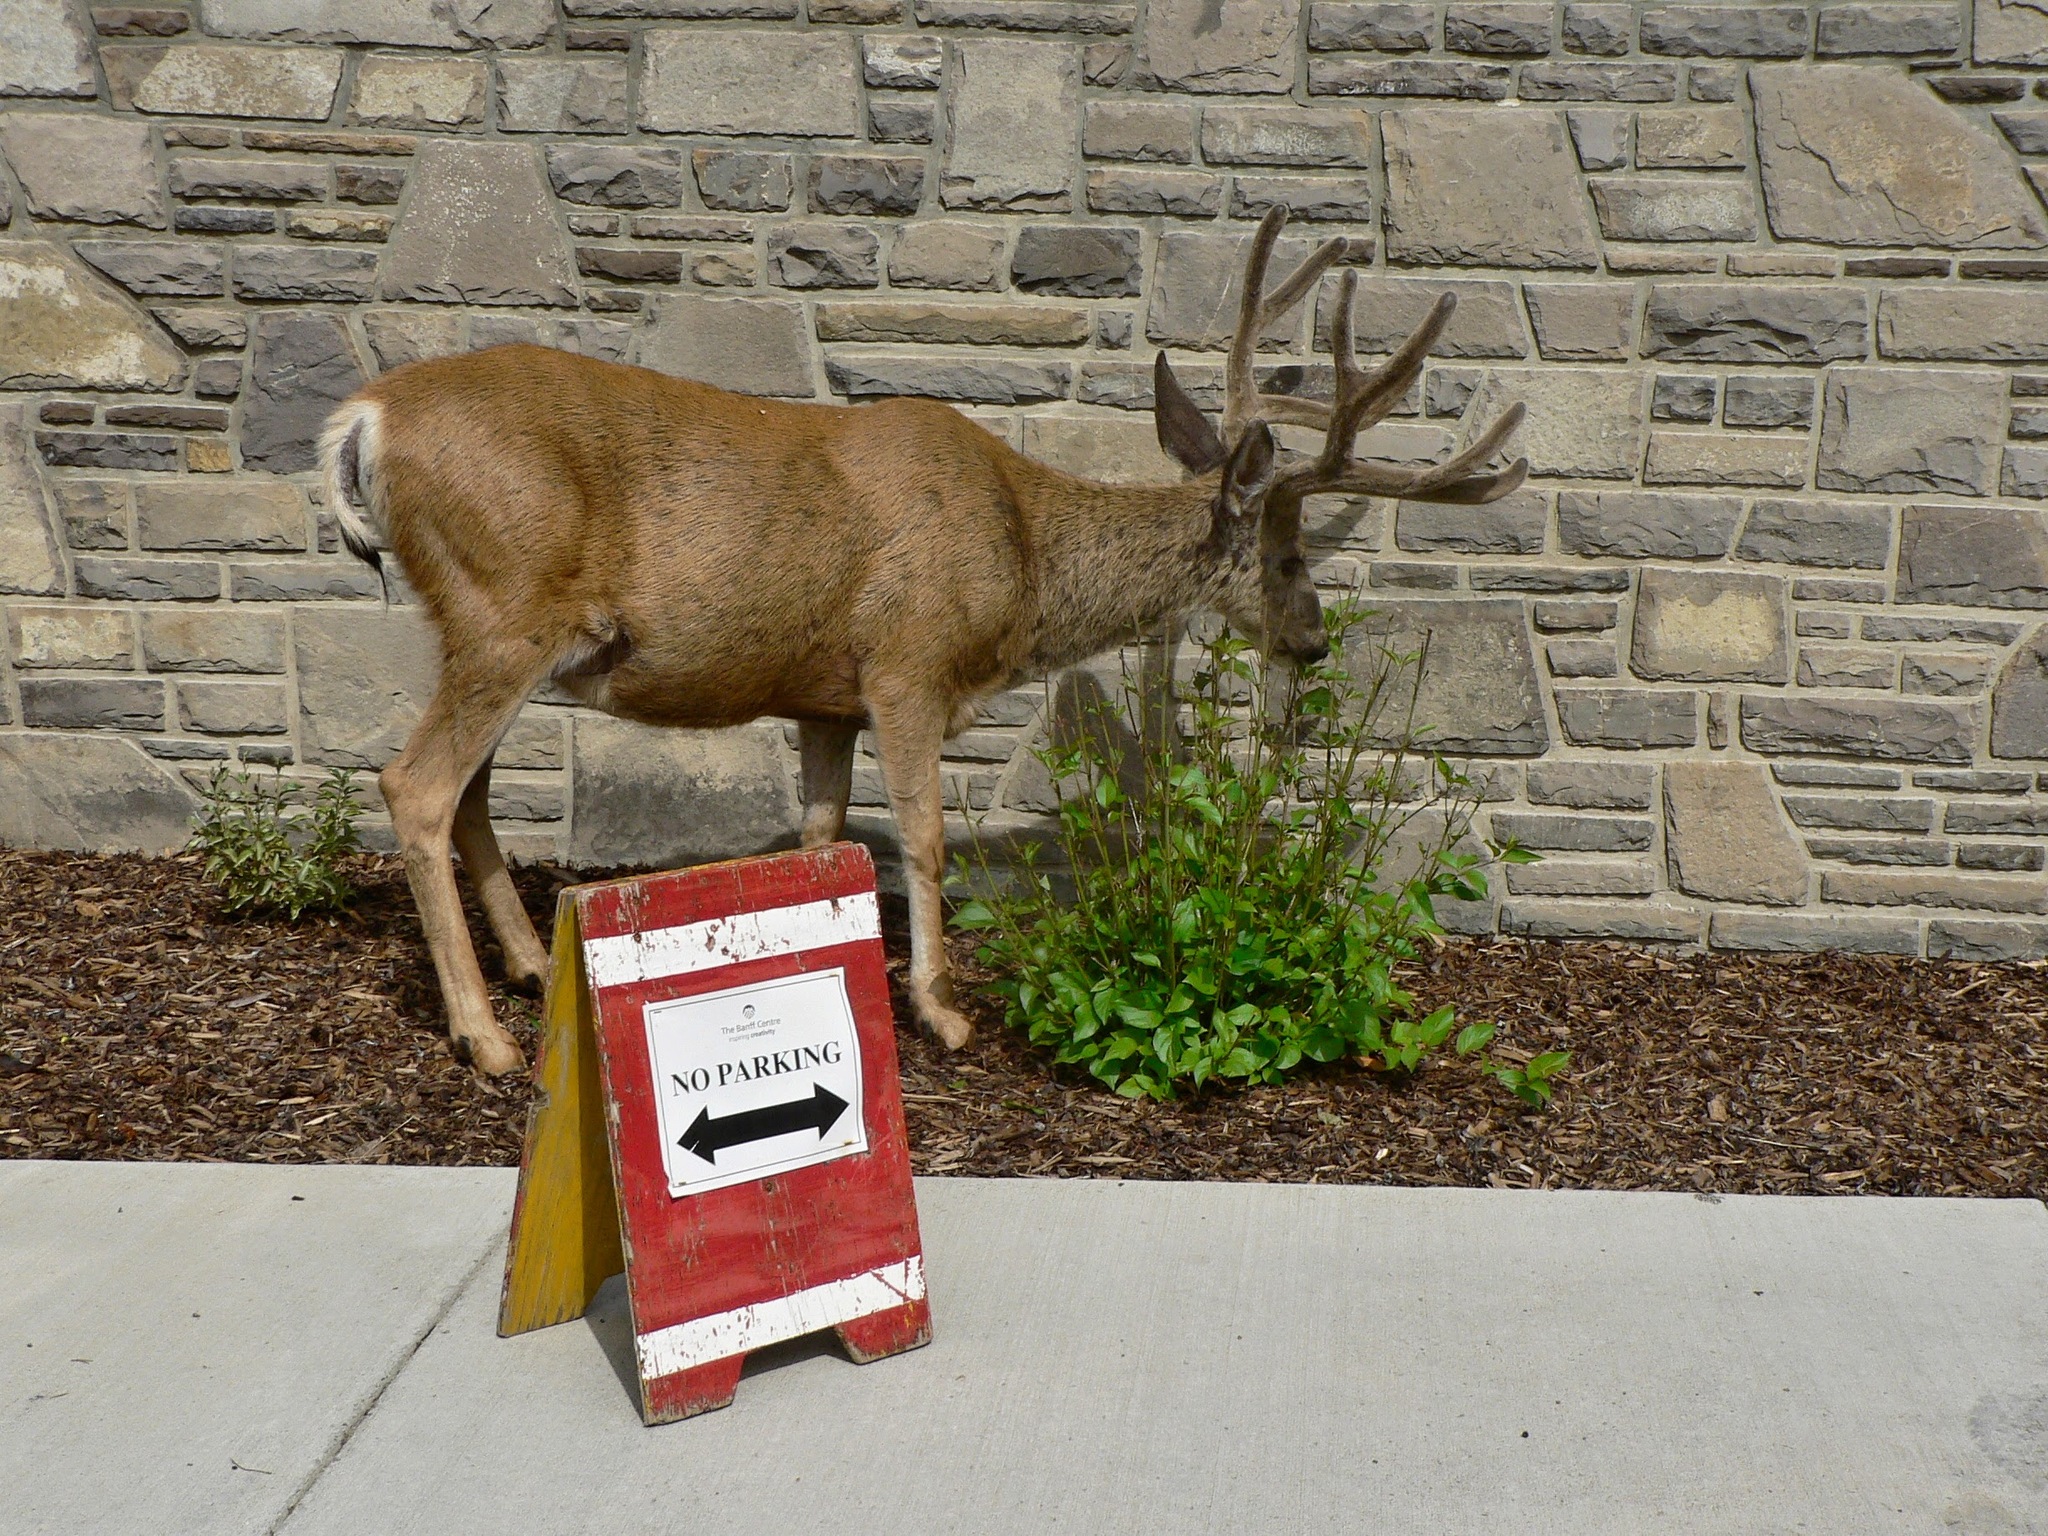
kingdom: Animalia
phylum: Chordata
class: Mammalia
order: Artiodactyla
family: Cervidae
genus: Odocoileus
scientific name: Odocoileus hemionus
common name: Mule deer
